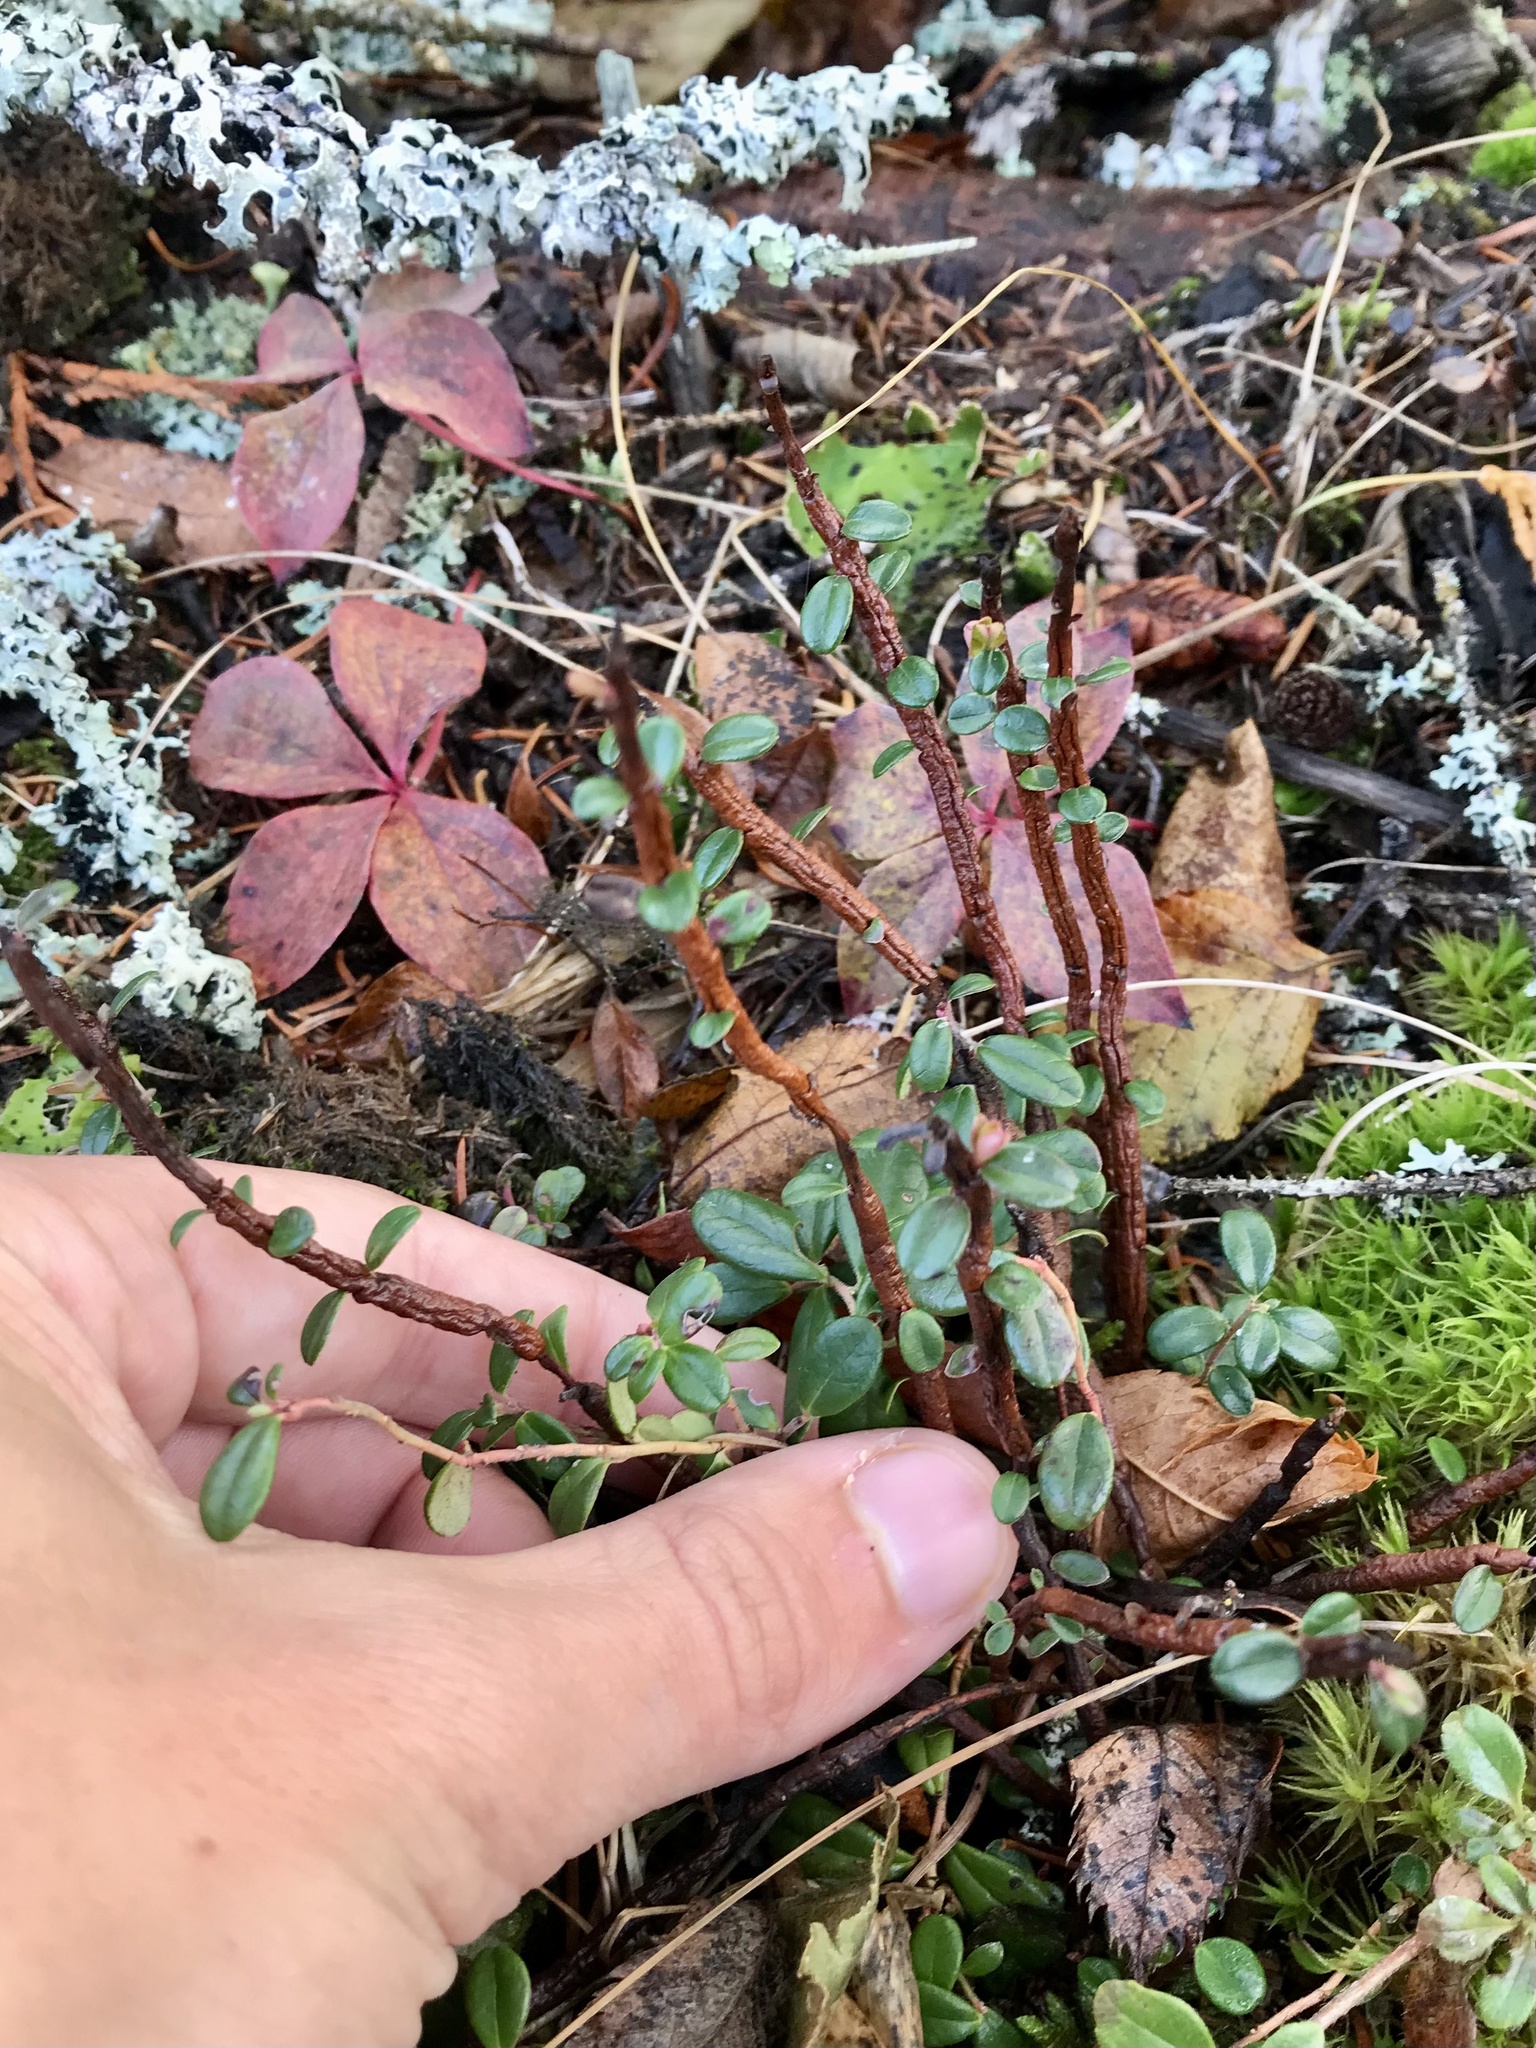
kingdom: Fungi
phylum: Basidiomycota
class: Pucciniomycetes
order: Pucciniales
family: Pucciniastraceae
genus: Calyptospora
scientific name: Calyptospora columnaris
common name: Huckleberry broom rust fungus
